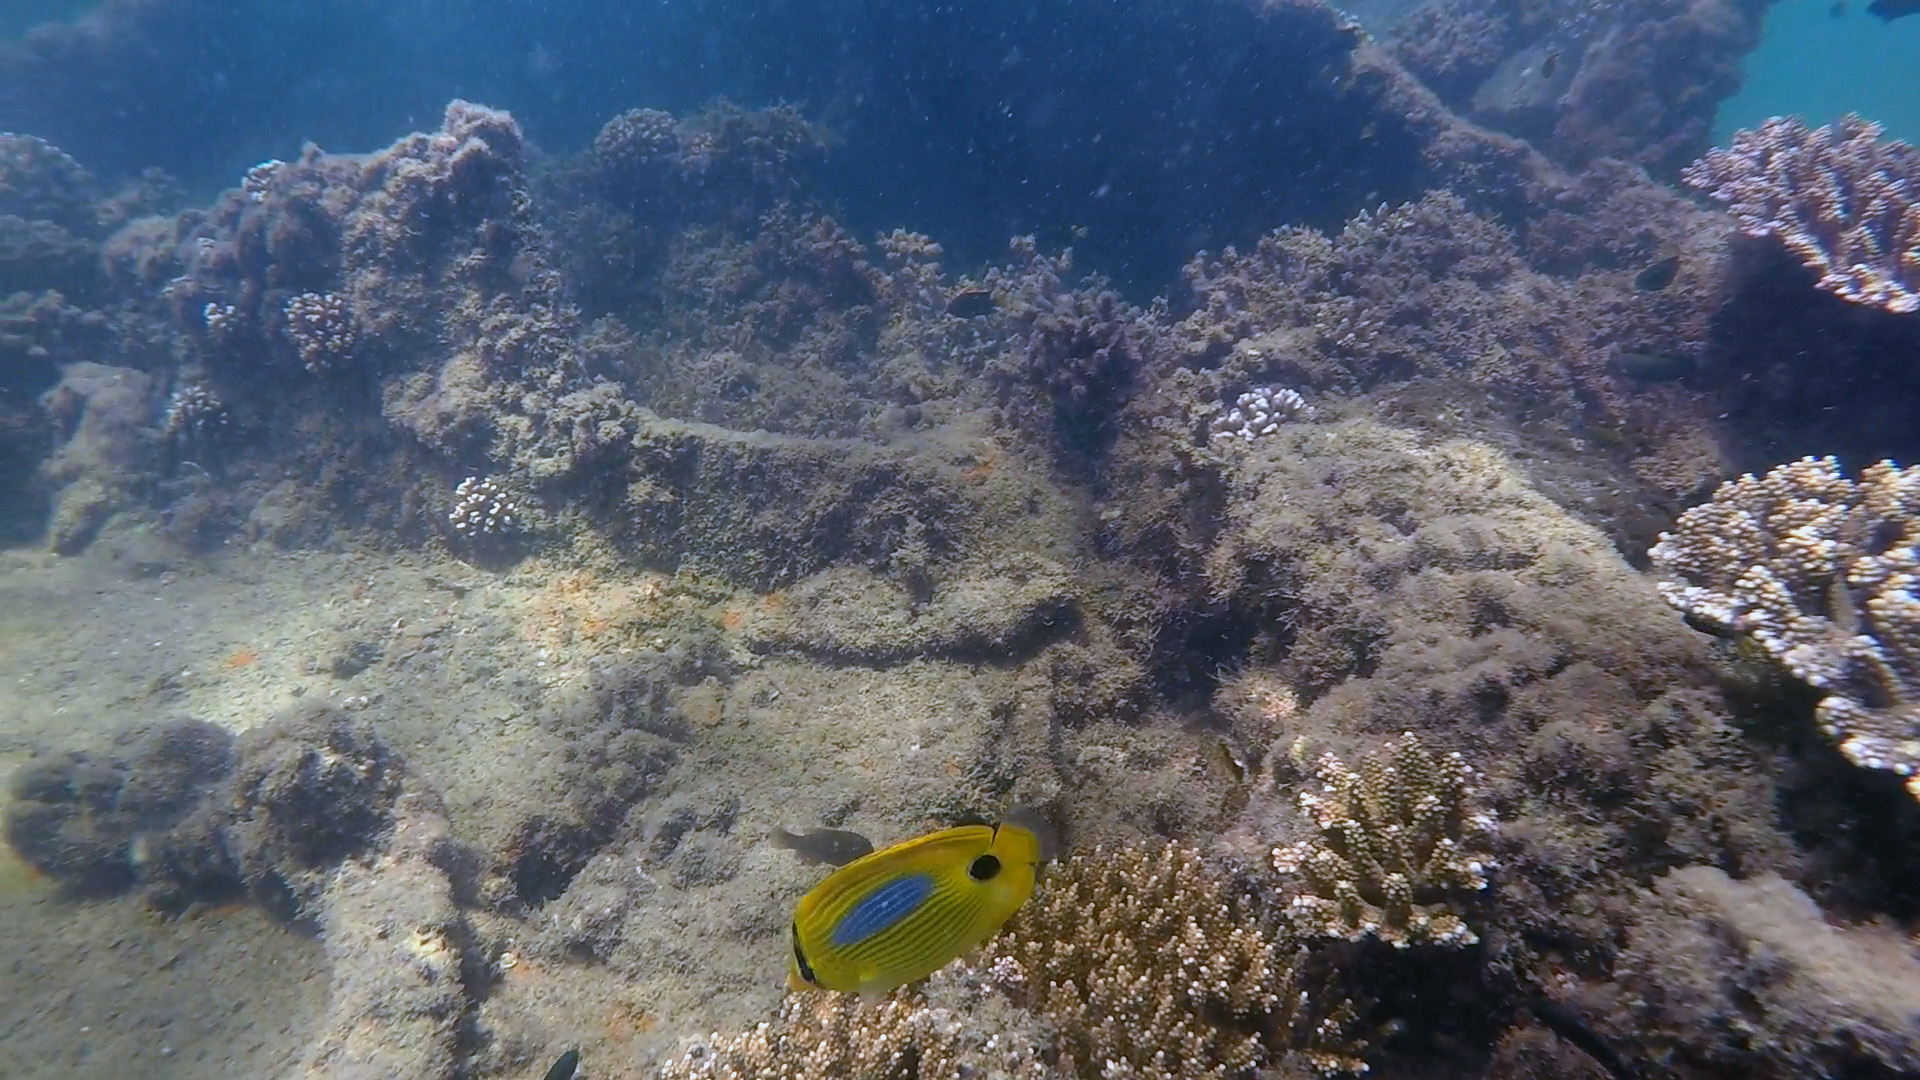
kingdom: Animalia
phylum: Chordata
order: Perciformes
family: Chaetodontidae
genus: Chaetodon
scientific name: Chaetodon plebeius
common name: Bluespot butterflyfish
